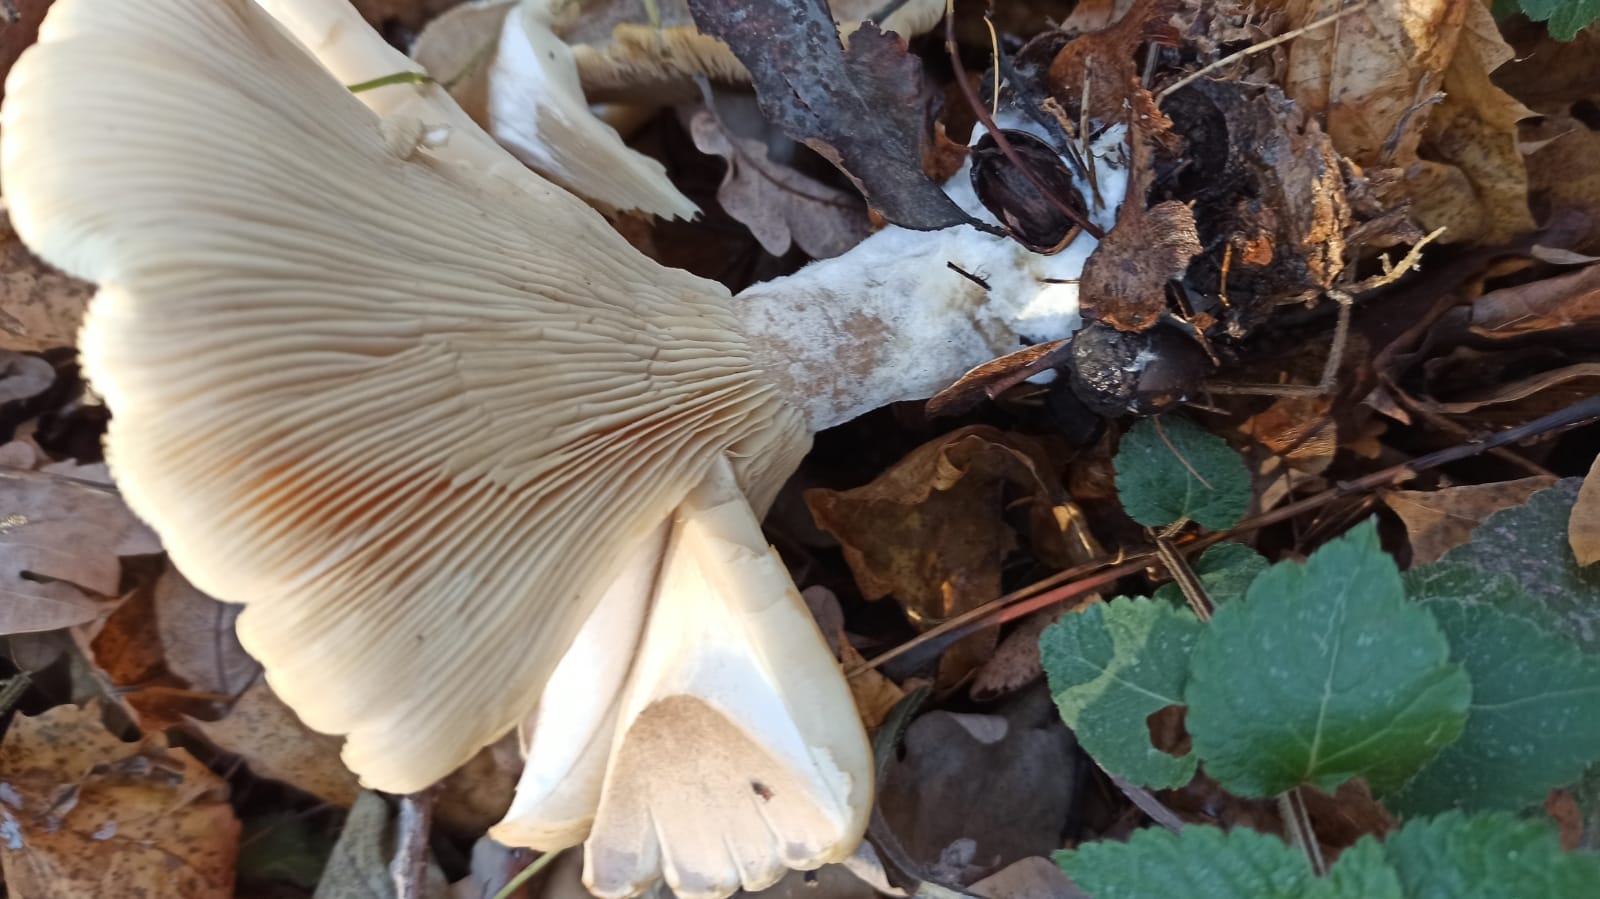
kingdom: Fungi
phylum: Basidiomycota
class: Agaricomycetes
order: Agaricales
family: Tricholomataceae
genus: Clitocybe
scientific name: Clitocybe nebularis
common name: Clouded agaric
